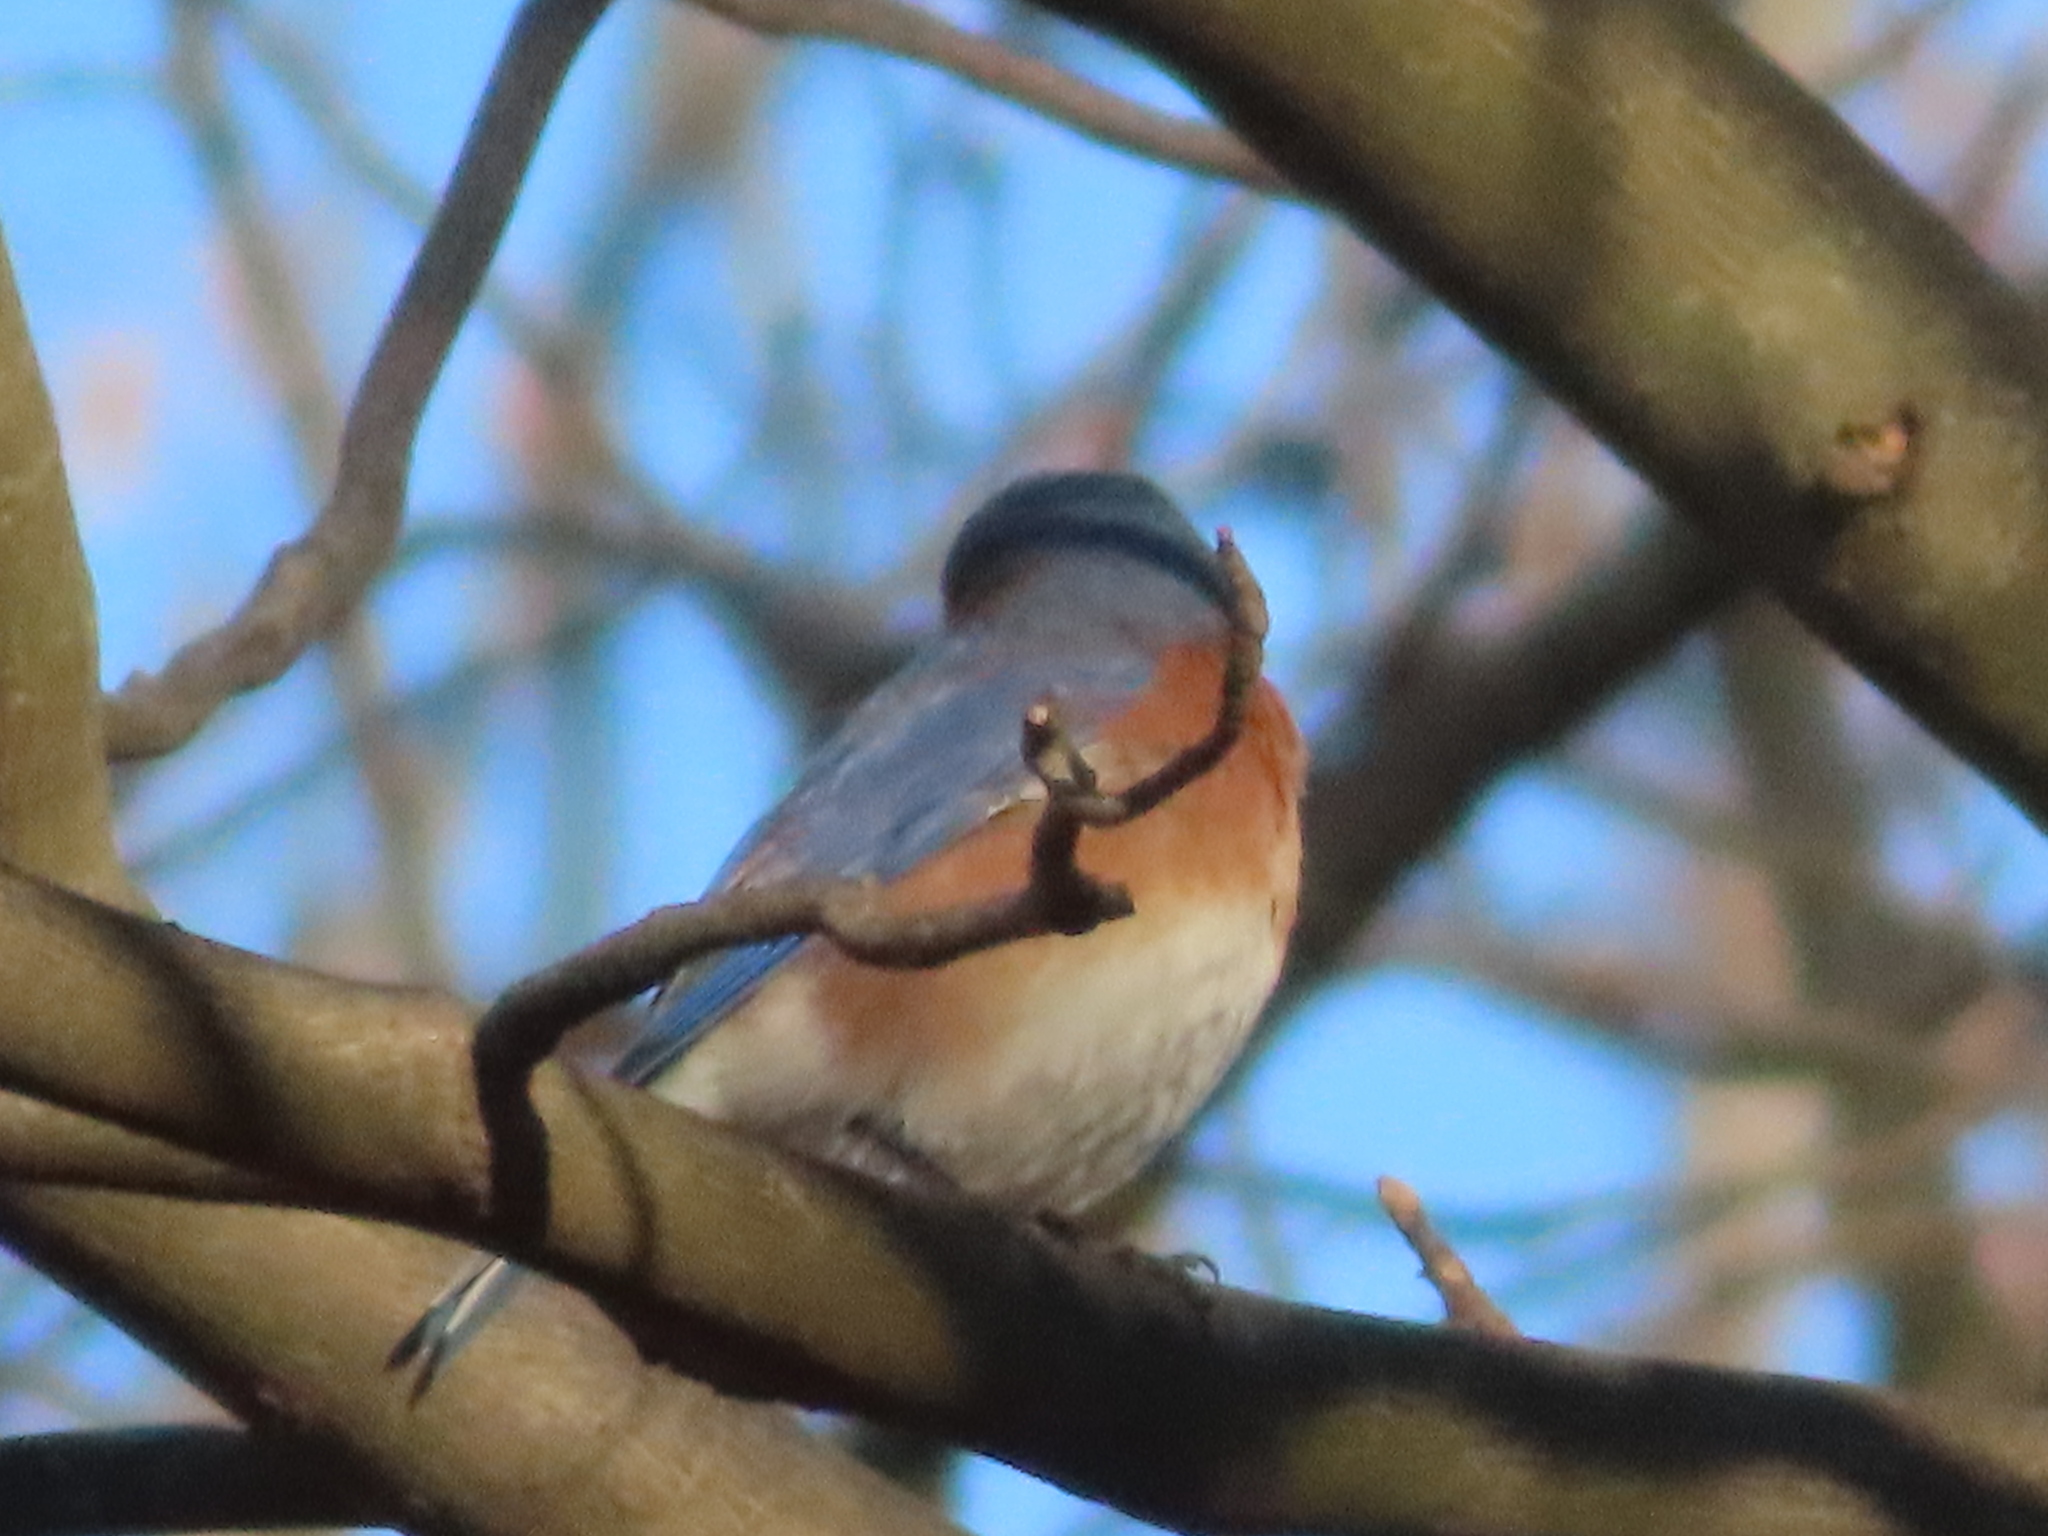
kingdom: Animalia
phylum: Chordata
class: Aves
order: Passeriformes
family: Turdidae
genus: Sialia
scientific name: Sialia sialis
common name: Eastern bluebird
